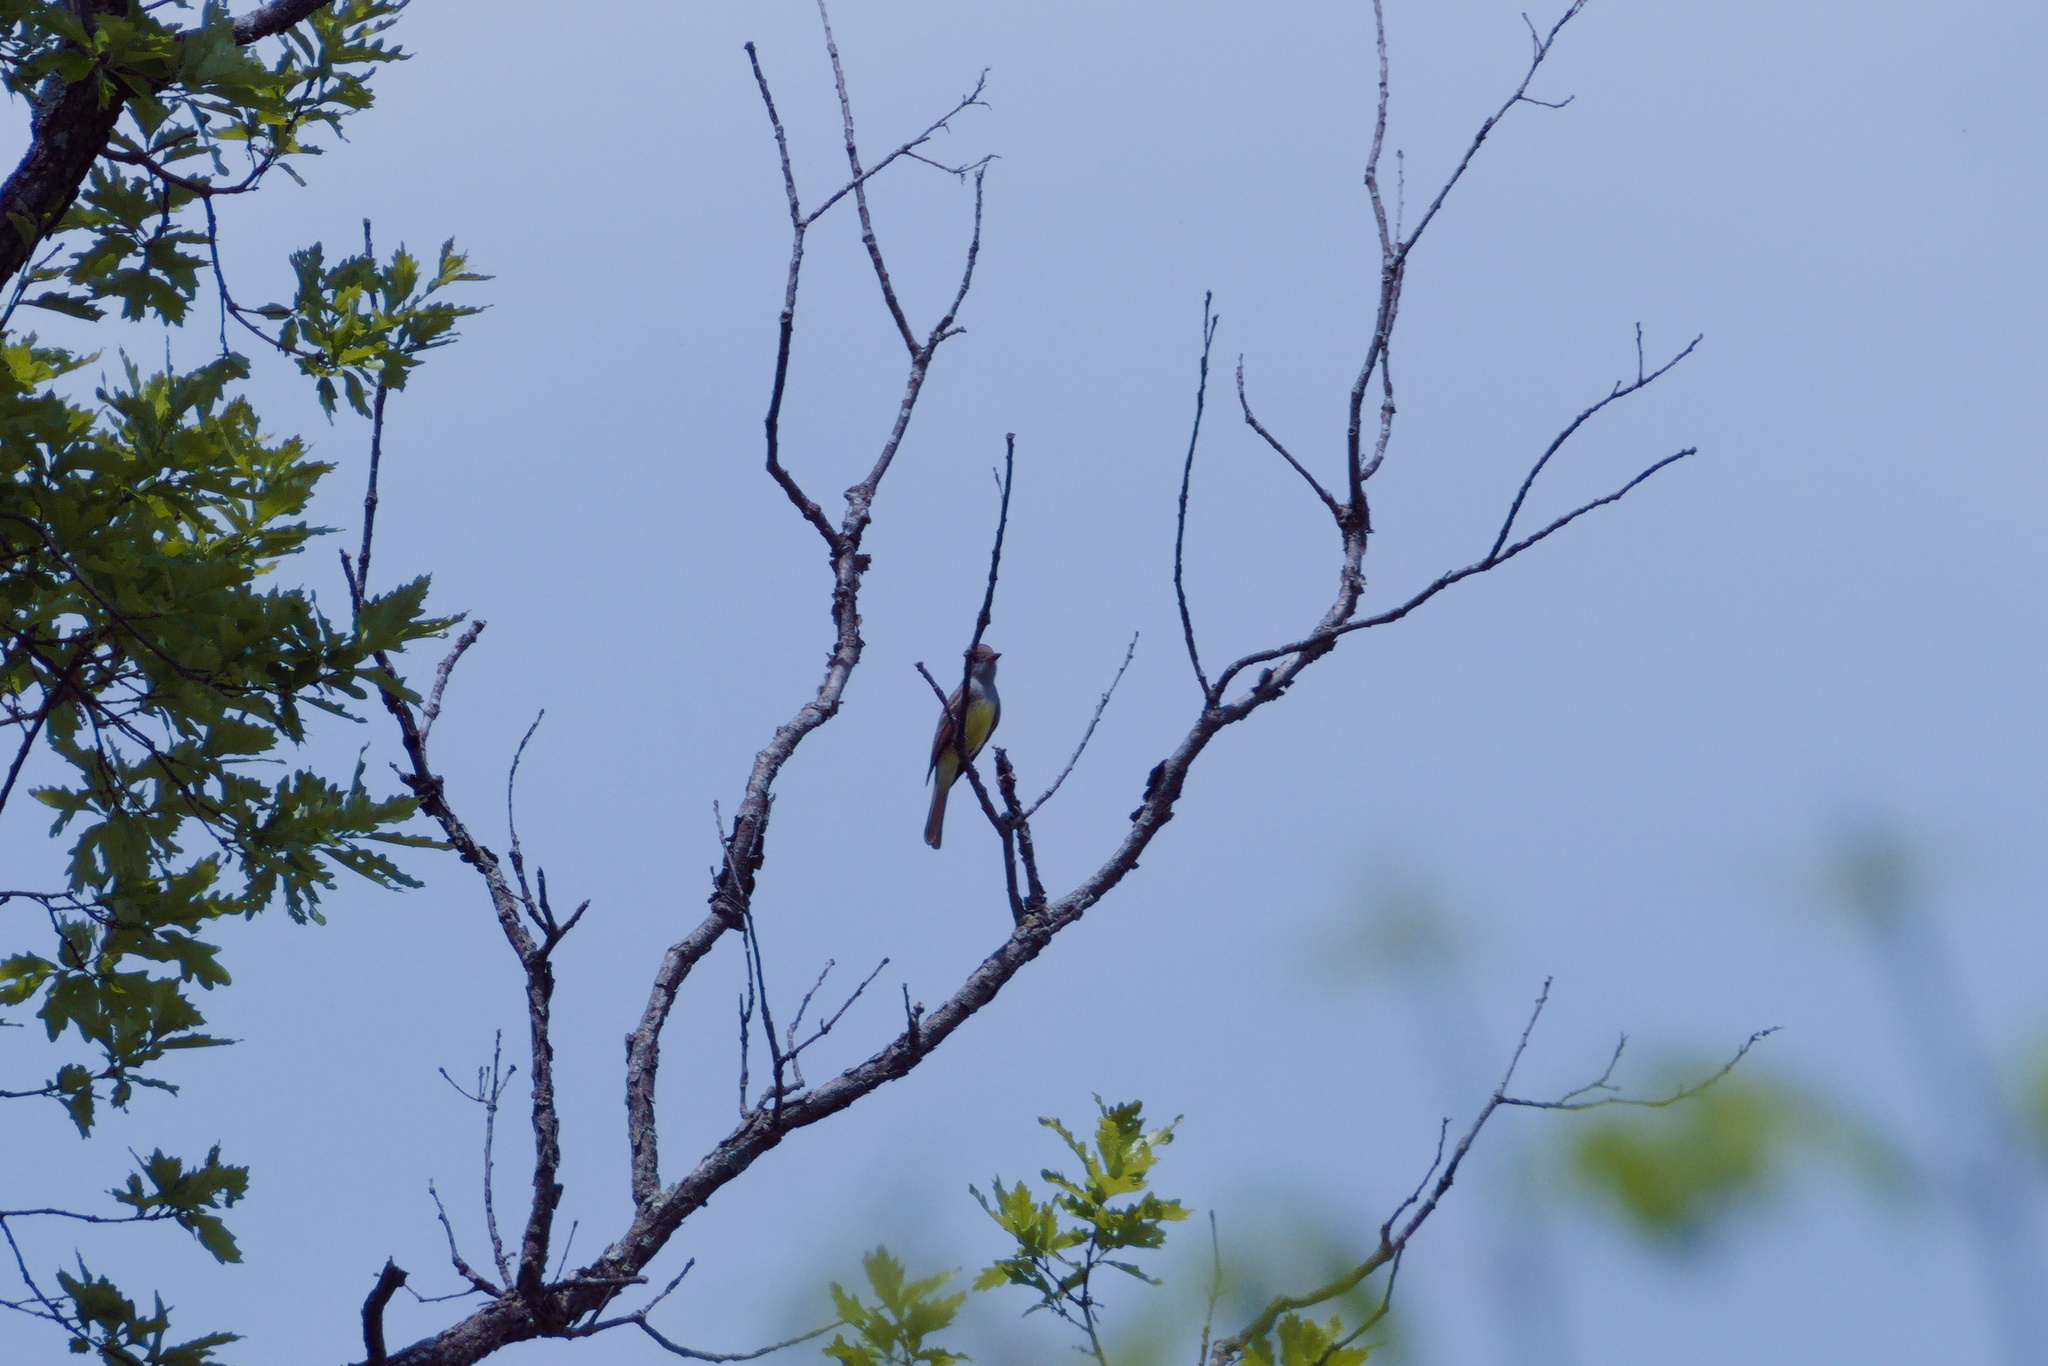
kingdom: Animalia
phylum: Chordata
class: Aves
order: Passeriformes
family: Tyrannidae
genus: Myiarchus
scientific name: Myiarchus crinitus
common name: Great crested flycatcher
